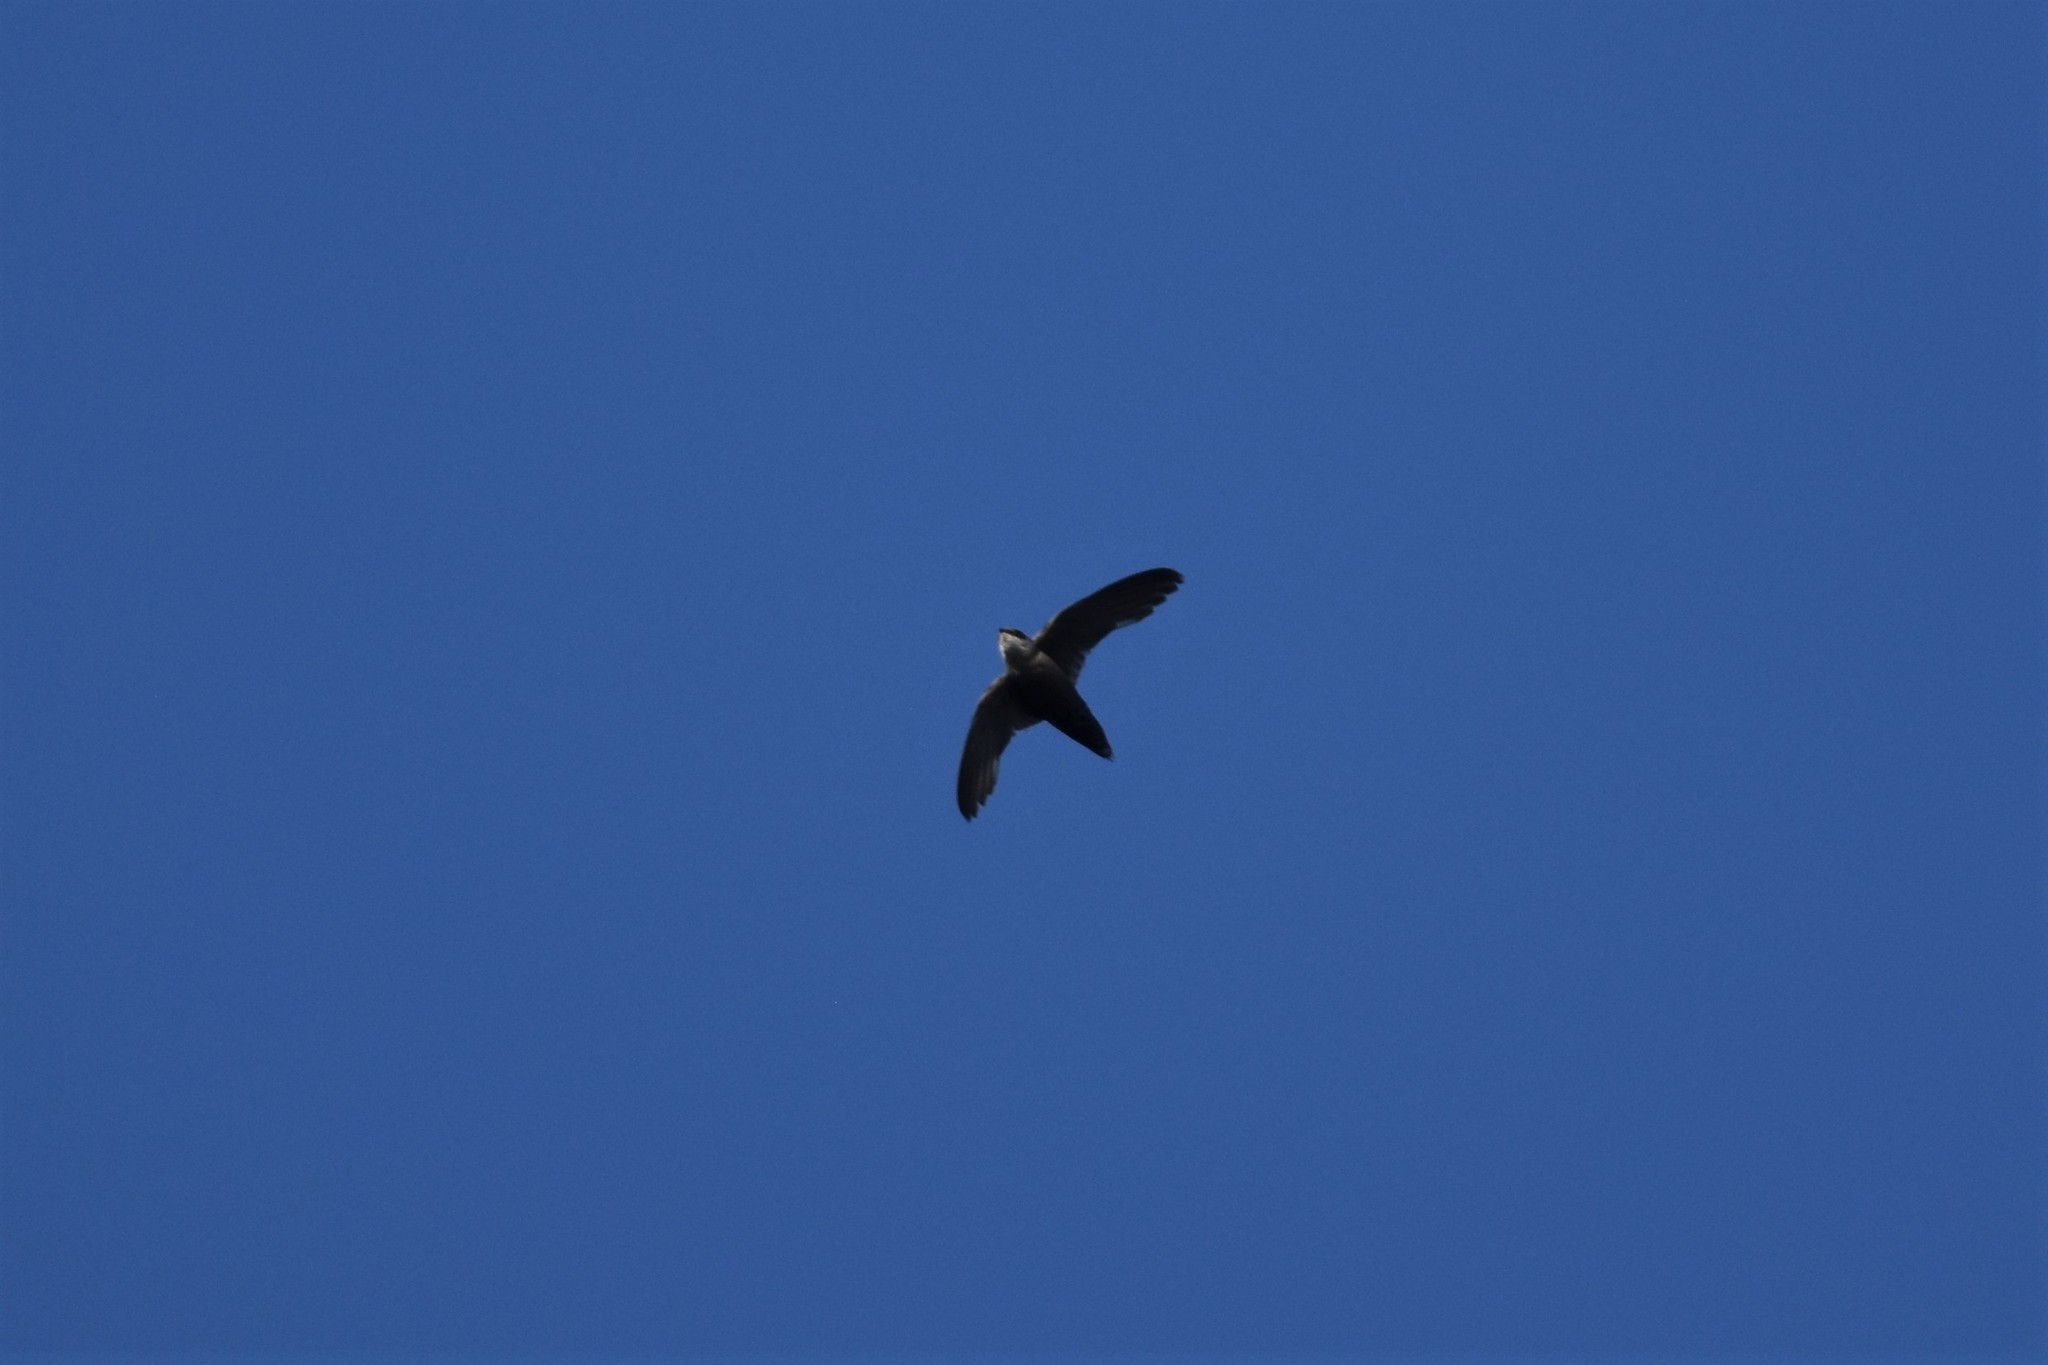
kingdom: Animalia
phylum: Chordata
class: Aves
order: Apodiformes
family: Apodidae
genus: Chaetura
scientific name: Chaetura pelagica
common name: Chimney swift
